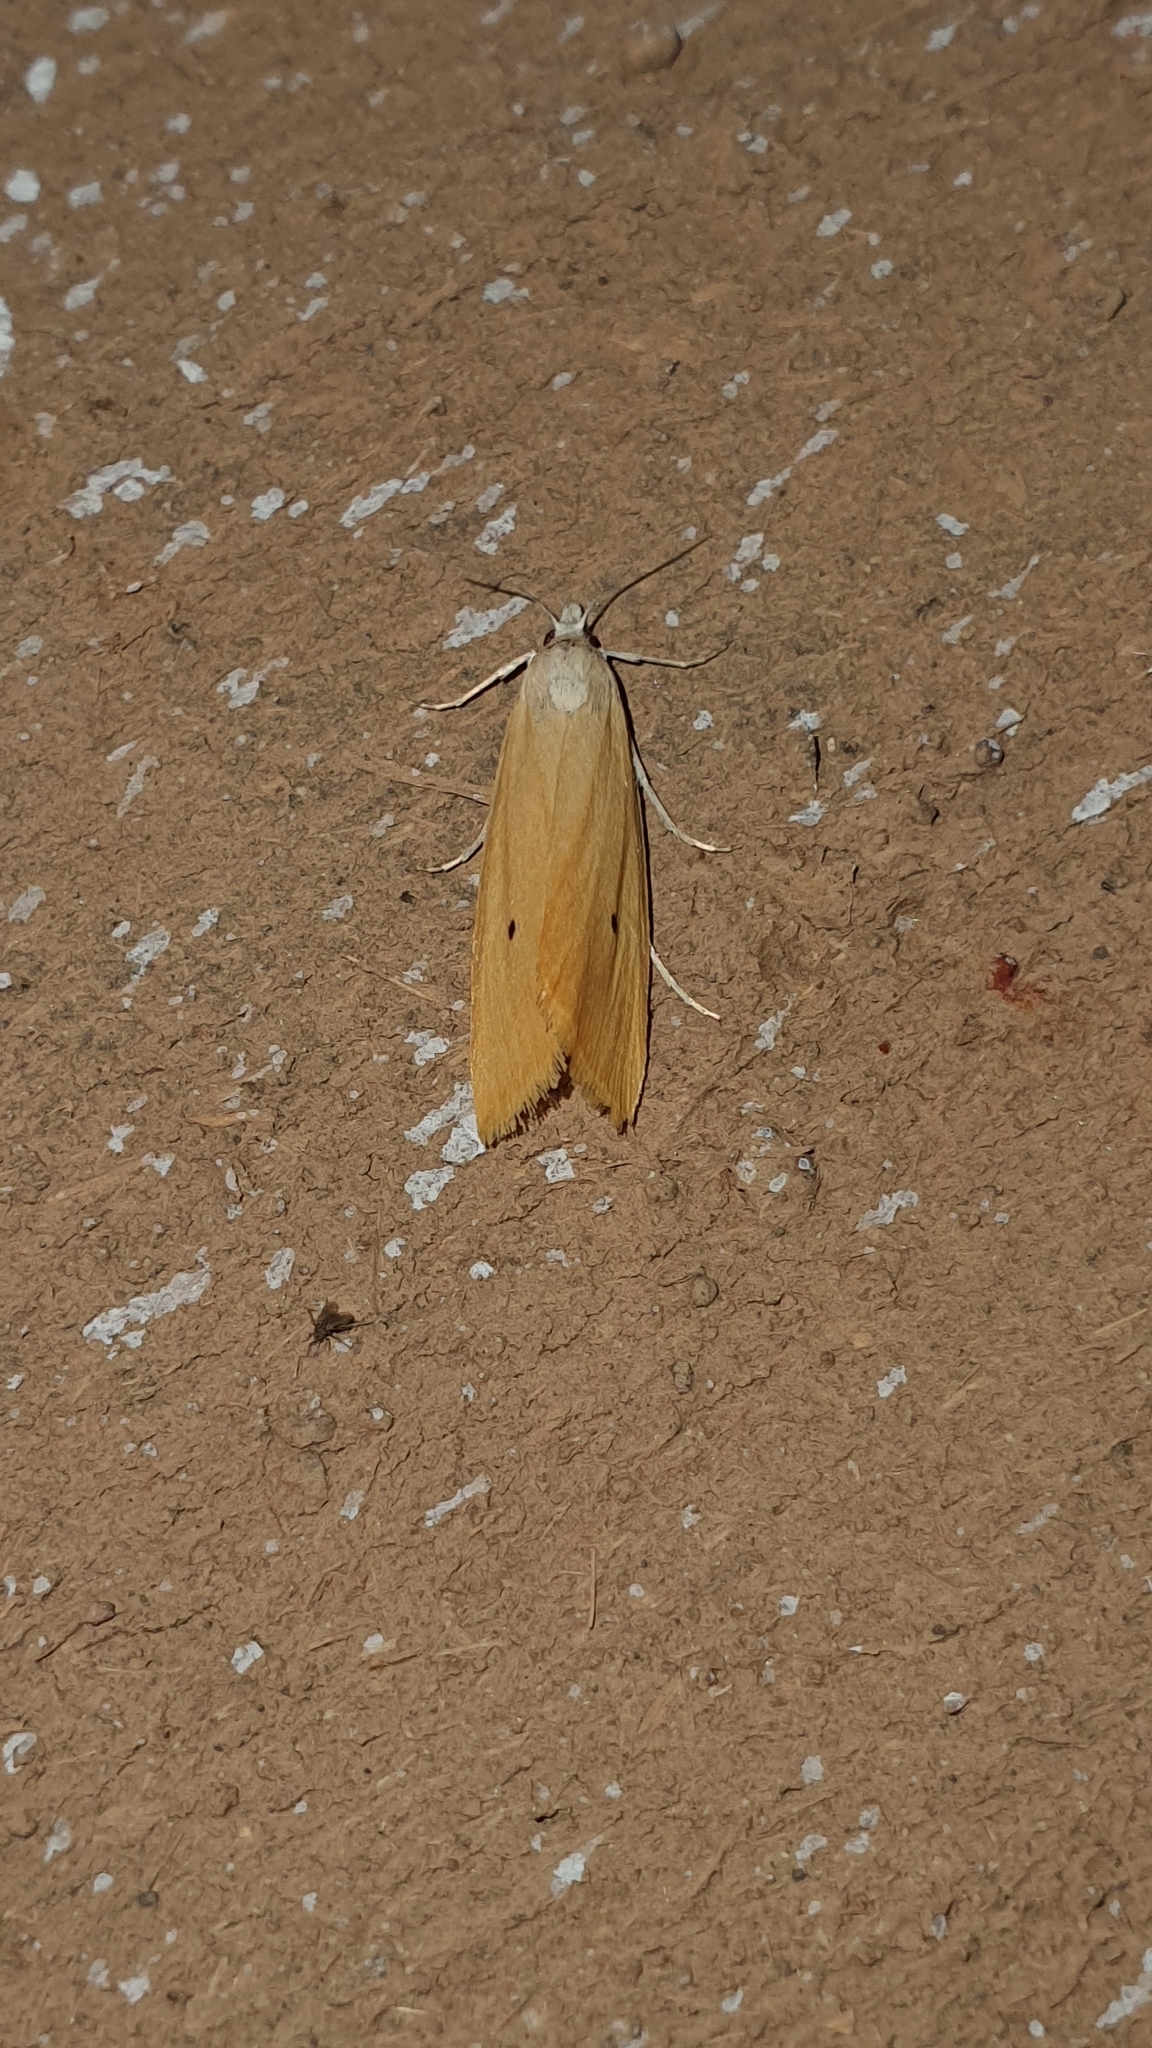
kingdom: Animalia
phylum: Arthropoda
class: Insecta
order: Lepidoptera
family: Crambidae
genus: Scirpophaga
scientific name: Scirpophaga incertulas
